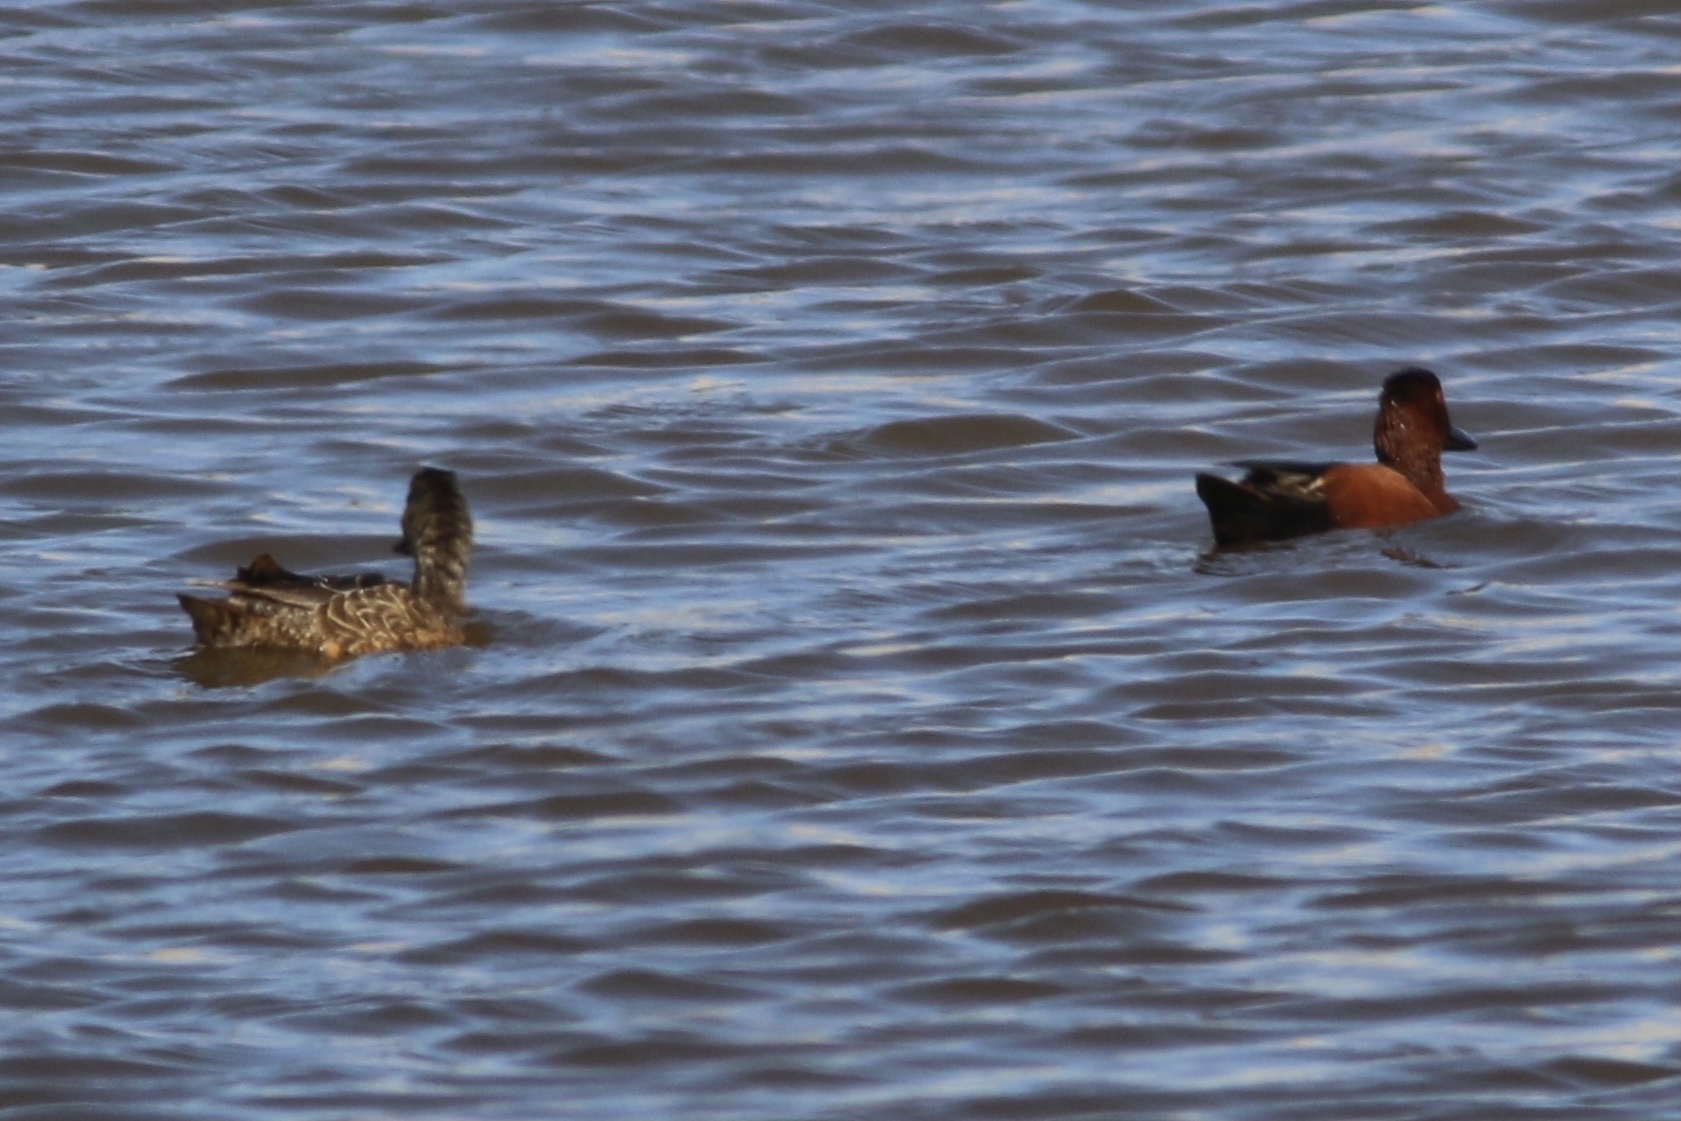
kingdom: Animalia
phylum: Chordata
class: Aves
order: Anseriformes
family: Anatidae
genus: Spatula
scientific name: Spatula cyanoptera
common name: Cinnamon teal
